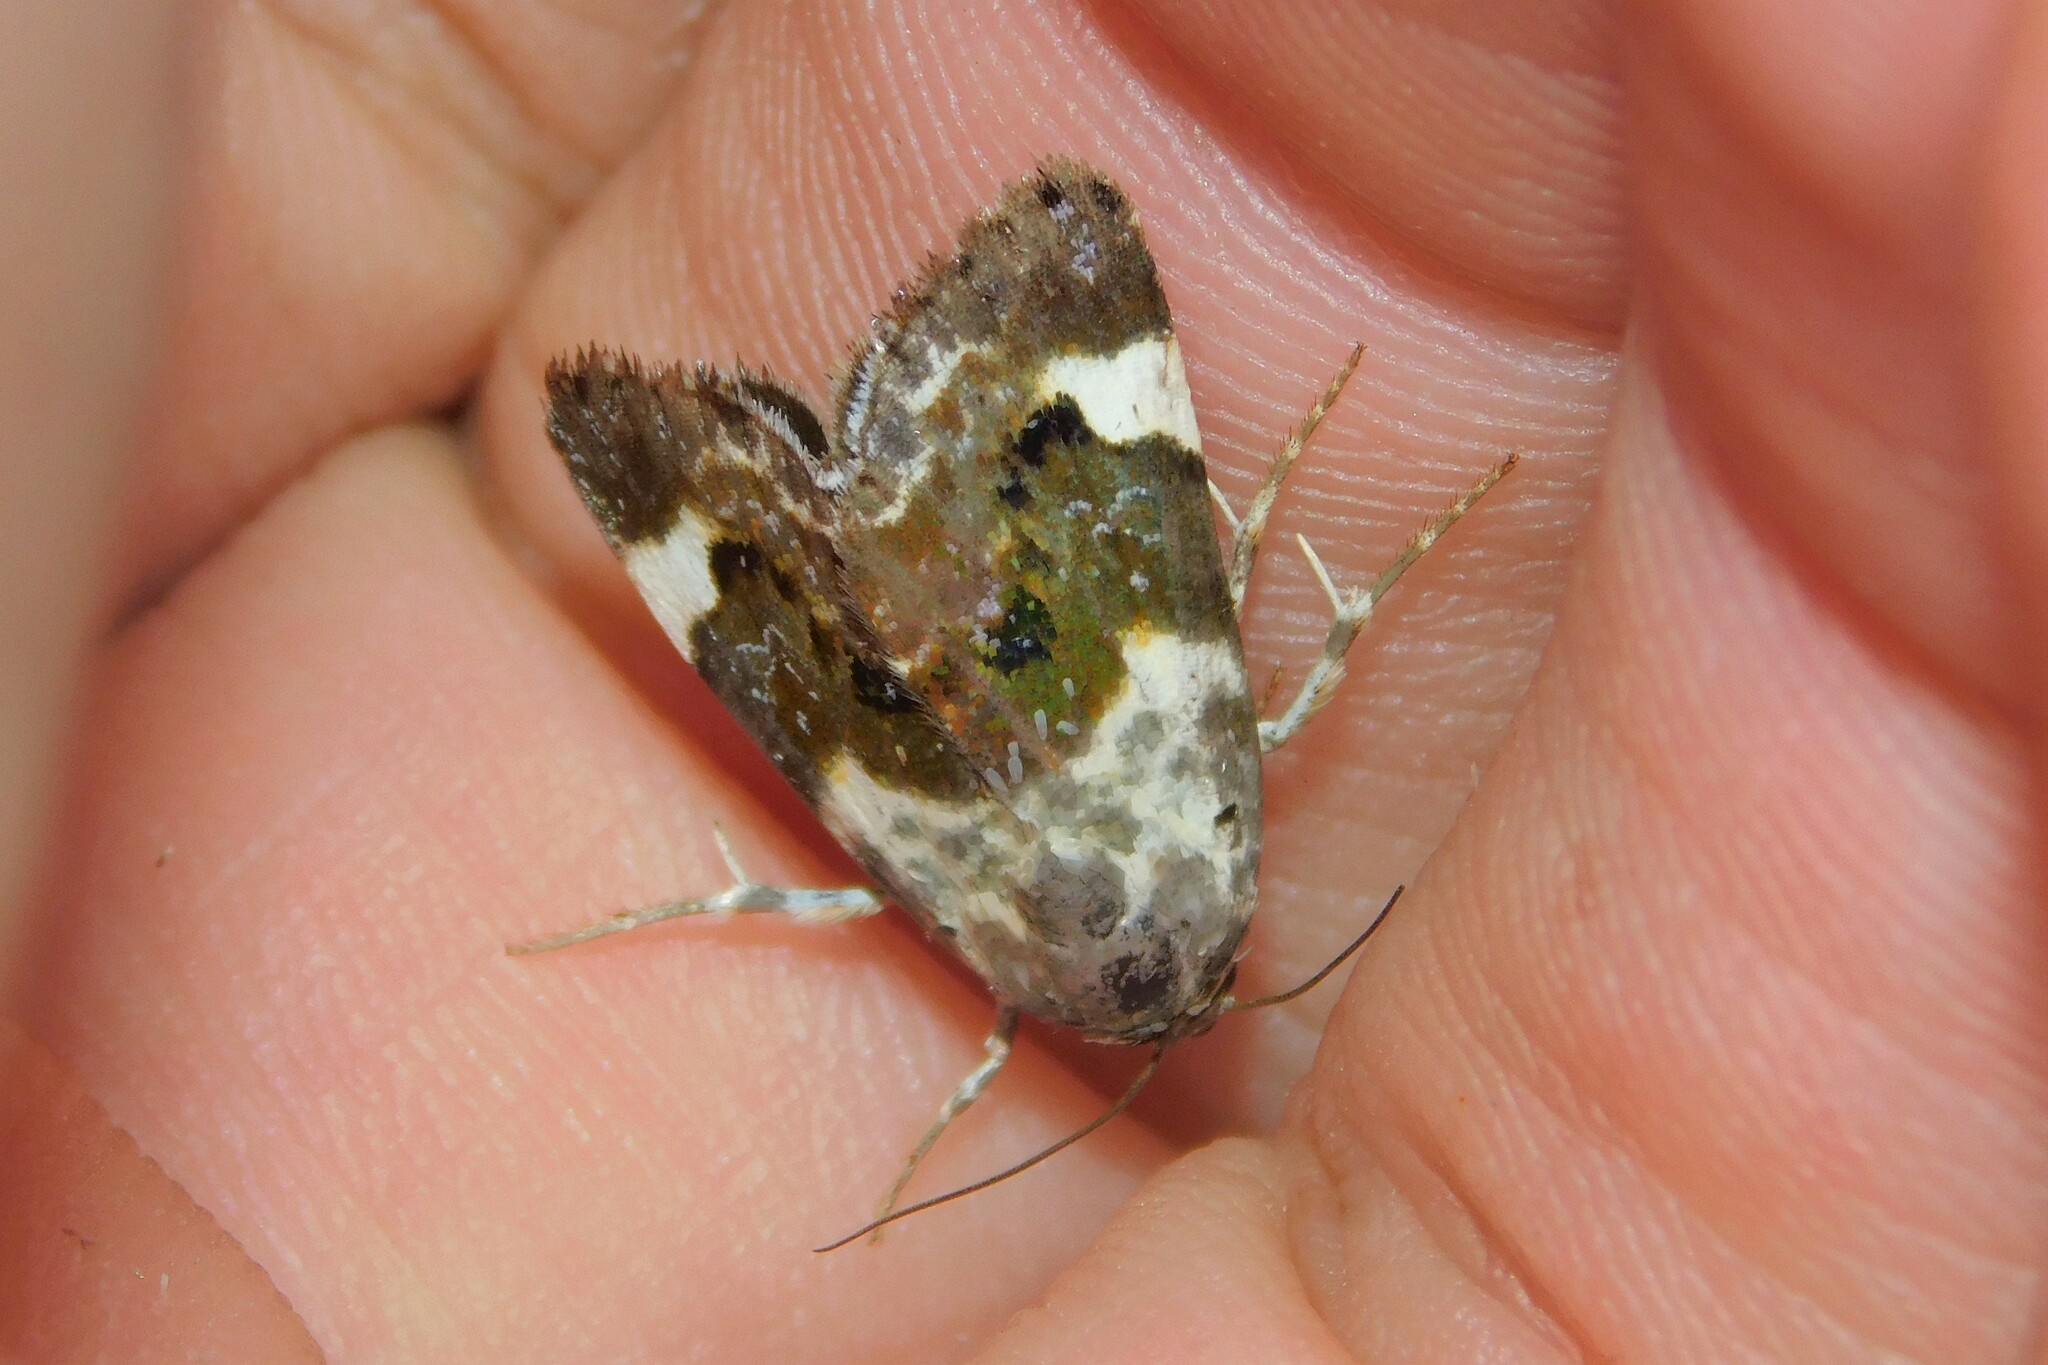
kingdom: Animalia
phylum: Arthropoda
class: Insecta
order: Lepidoptera
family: Noctuidae
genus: Acontia
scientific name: Acontia lucida
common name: Pale shoulder
